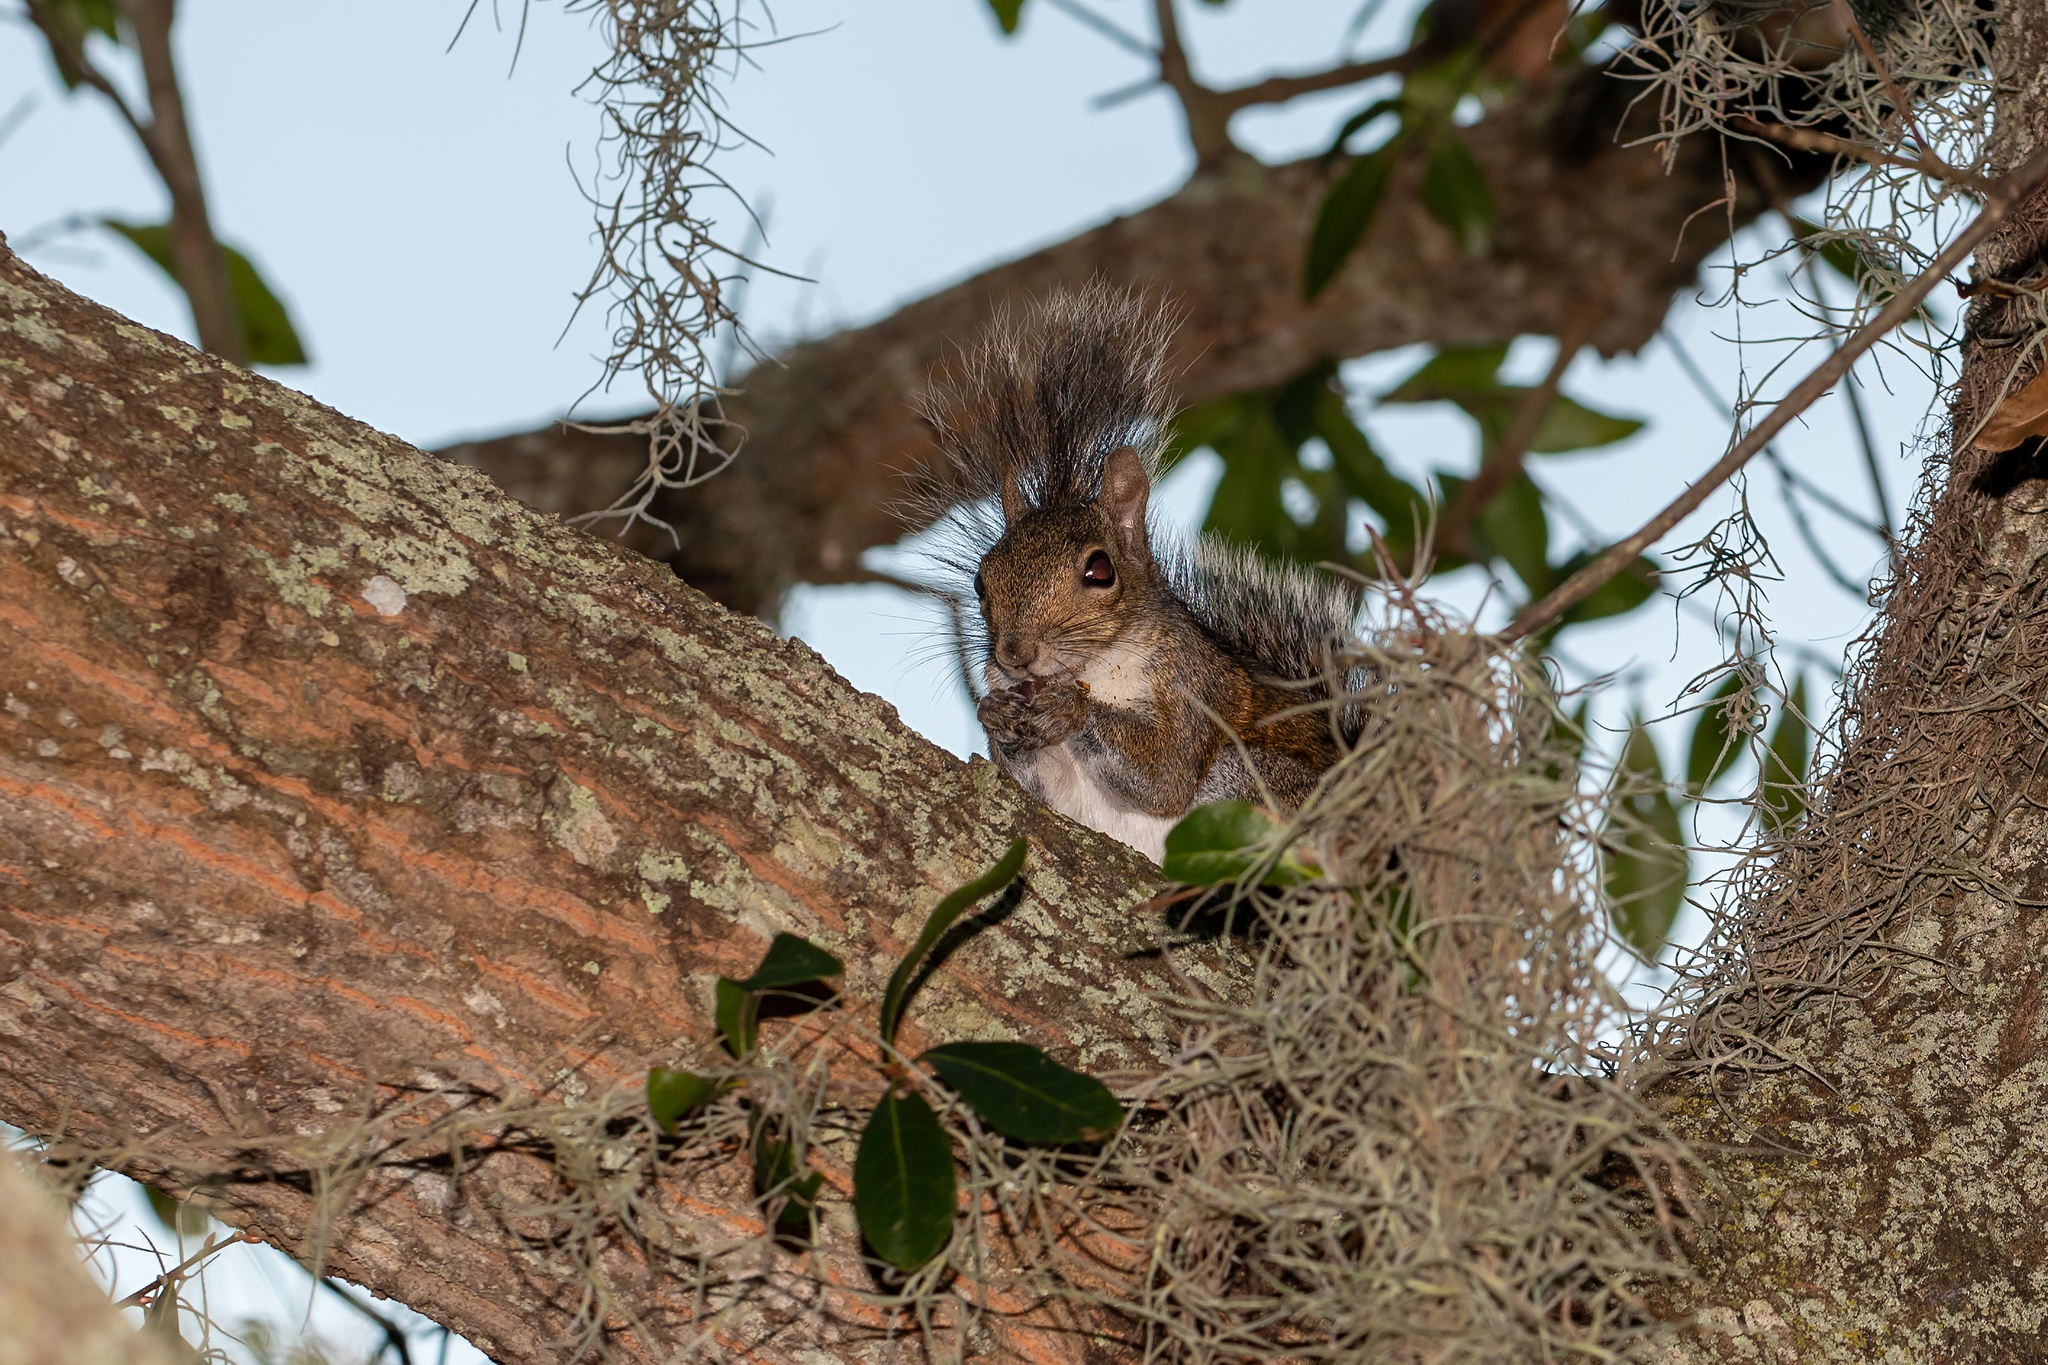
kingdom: Animalia
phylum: Chordata
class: Mammalia
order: Rodentia
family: Sciuridae
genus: Sciurus
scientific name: Sciurus carolinensis
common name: Eastern gray squirrel
